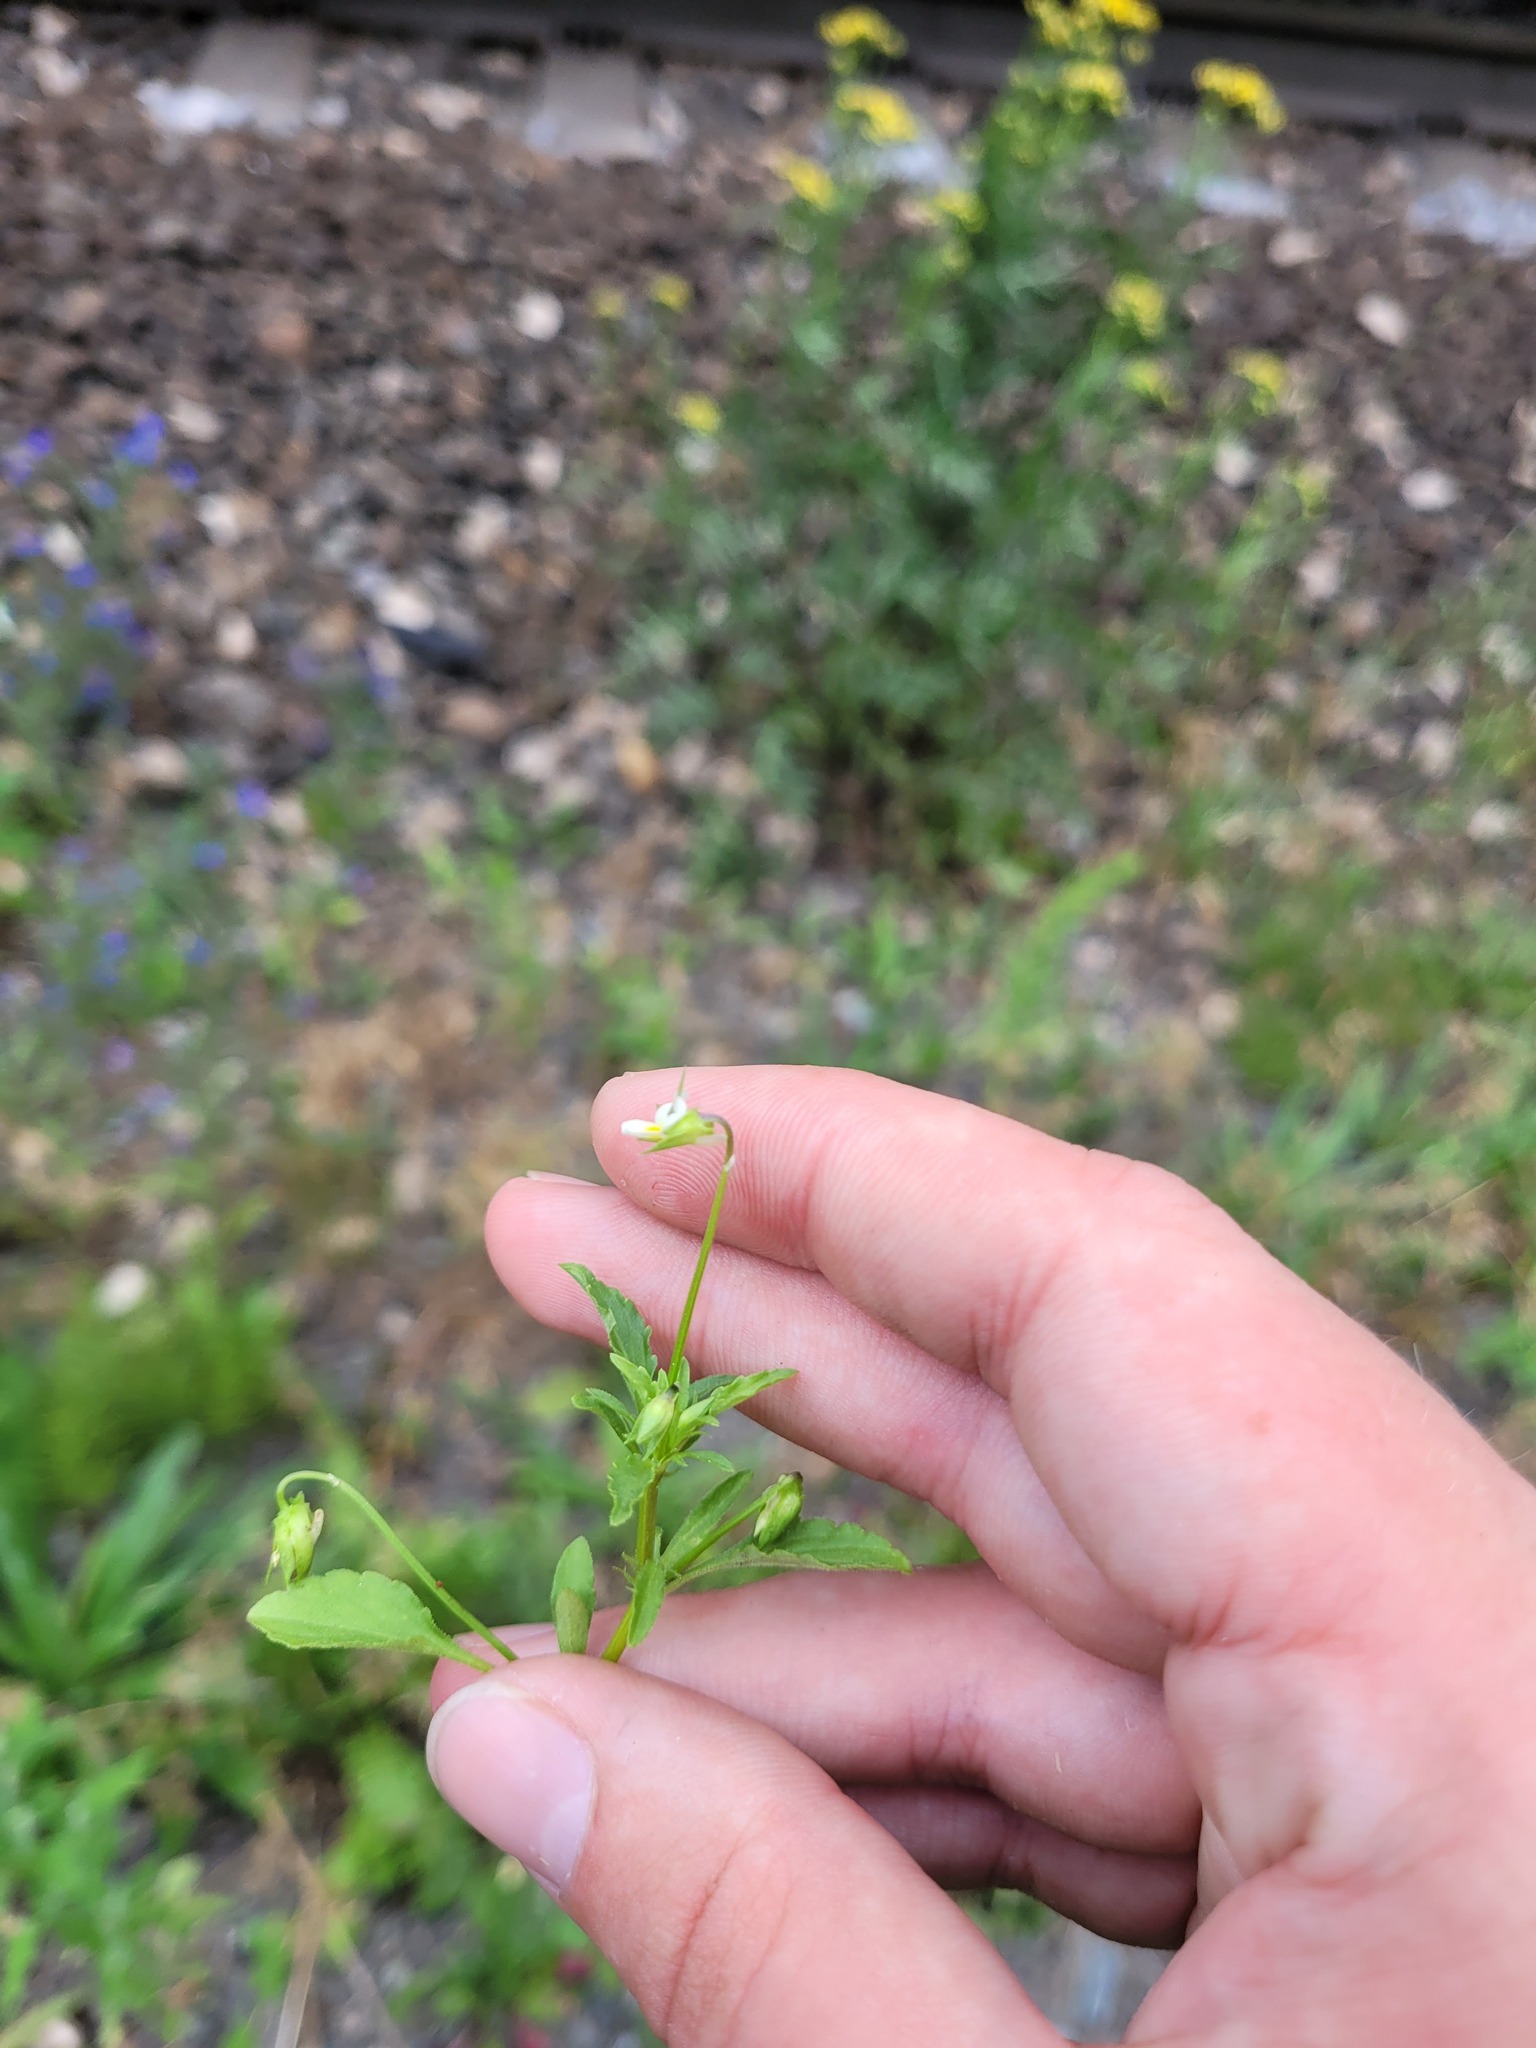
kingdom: Plantae
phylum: Tracheophyta
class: Magnoliopsida
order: Malpighiales
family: Violaceae
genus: Viola
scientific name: Viola arvensis
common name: Field pansy
